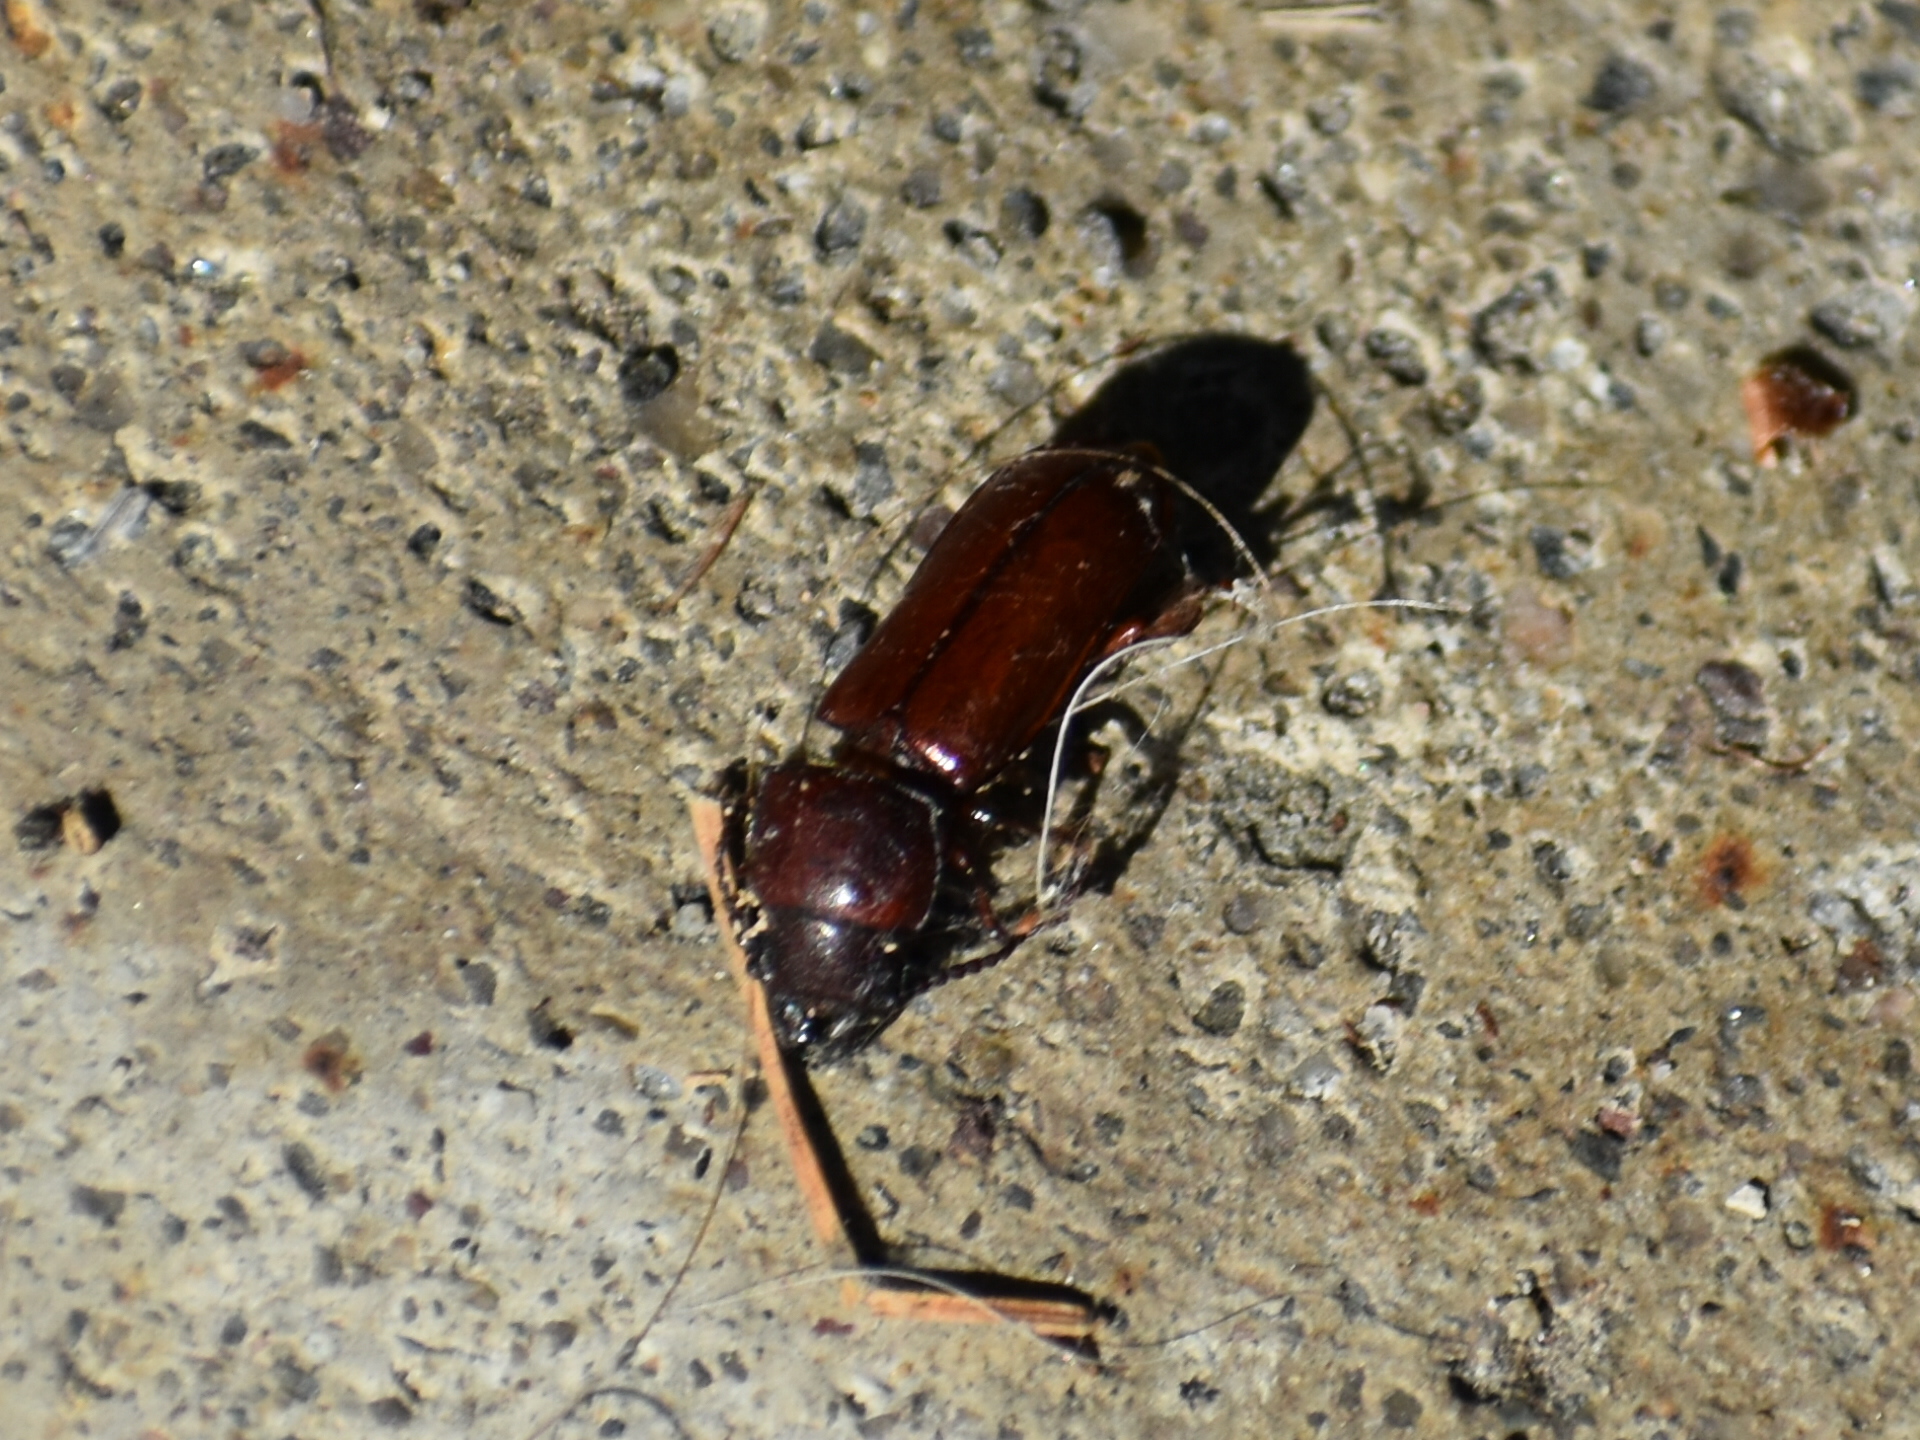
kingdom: Animalia
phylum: Arthropoda
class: Insecta
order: Coleoptera
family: Cerambycidae
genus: Neandra
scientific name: Neandra brunnea
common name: Pole borer
